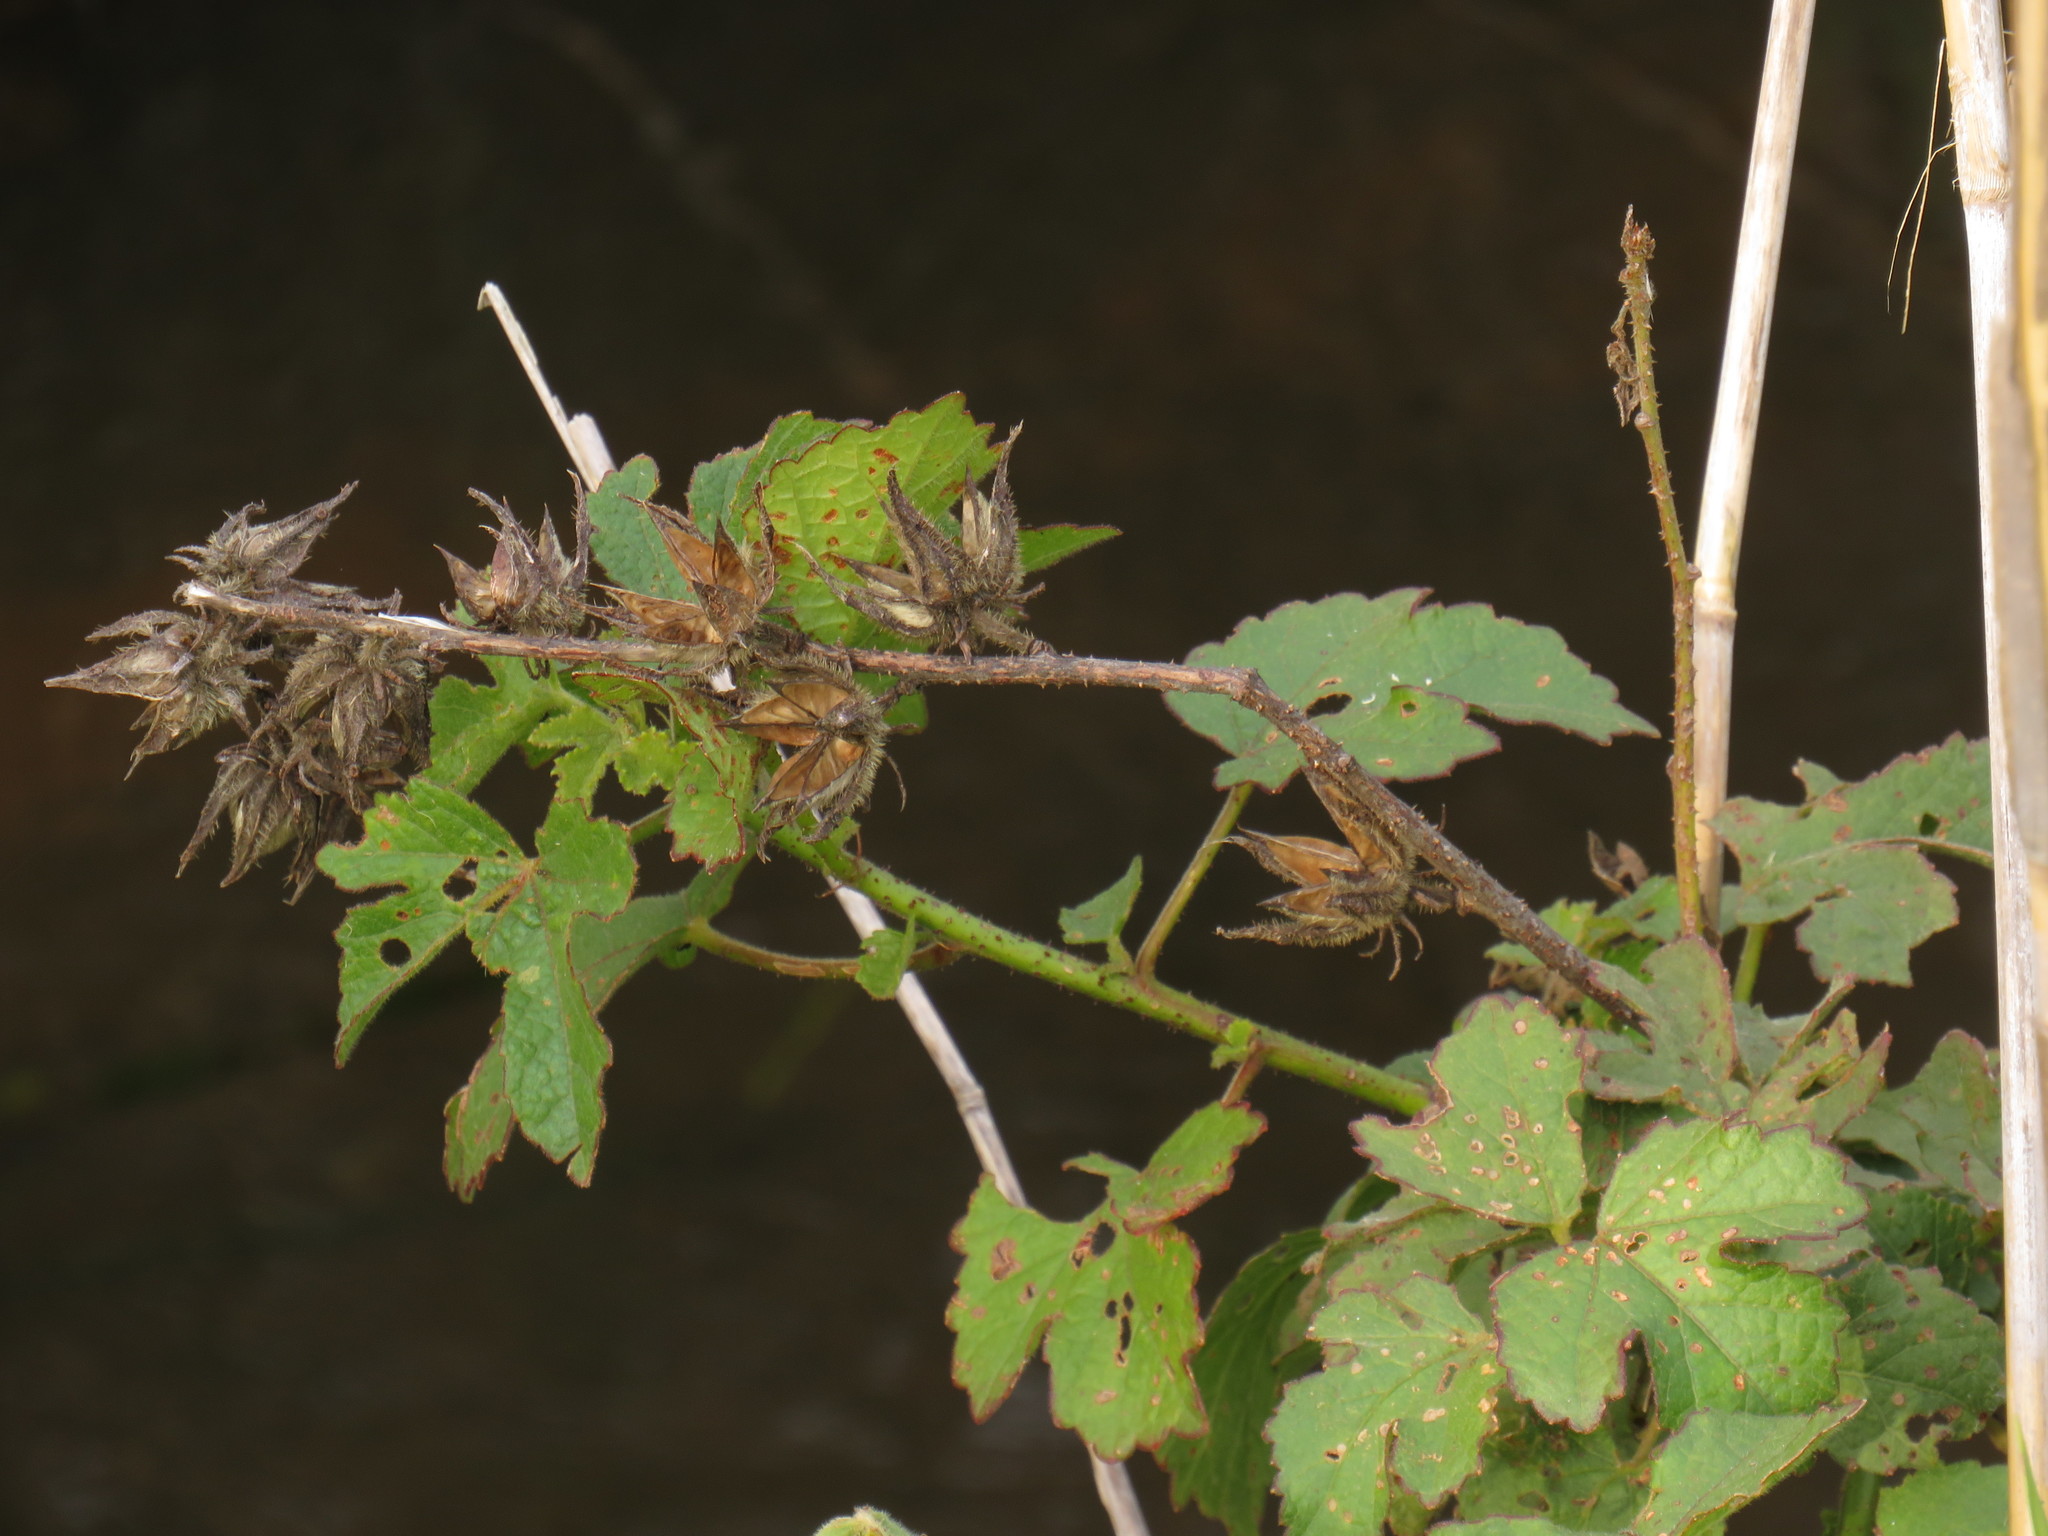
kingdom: Plantae
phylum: Tracheophyta
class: Magnoliopsida
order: Malvales
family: Malvaceae
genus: Hibiscus
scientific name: Hibiscus diversifolius
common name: Cape hibiscus
